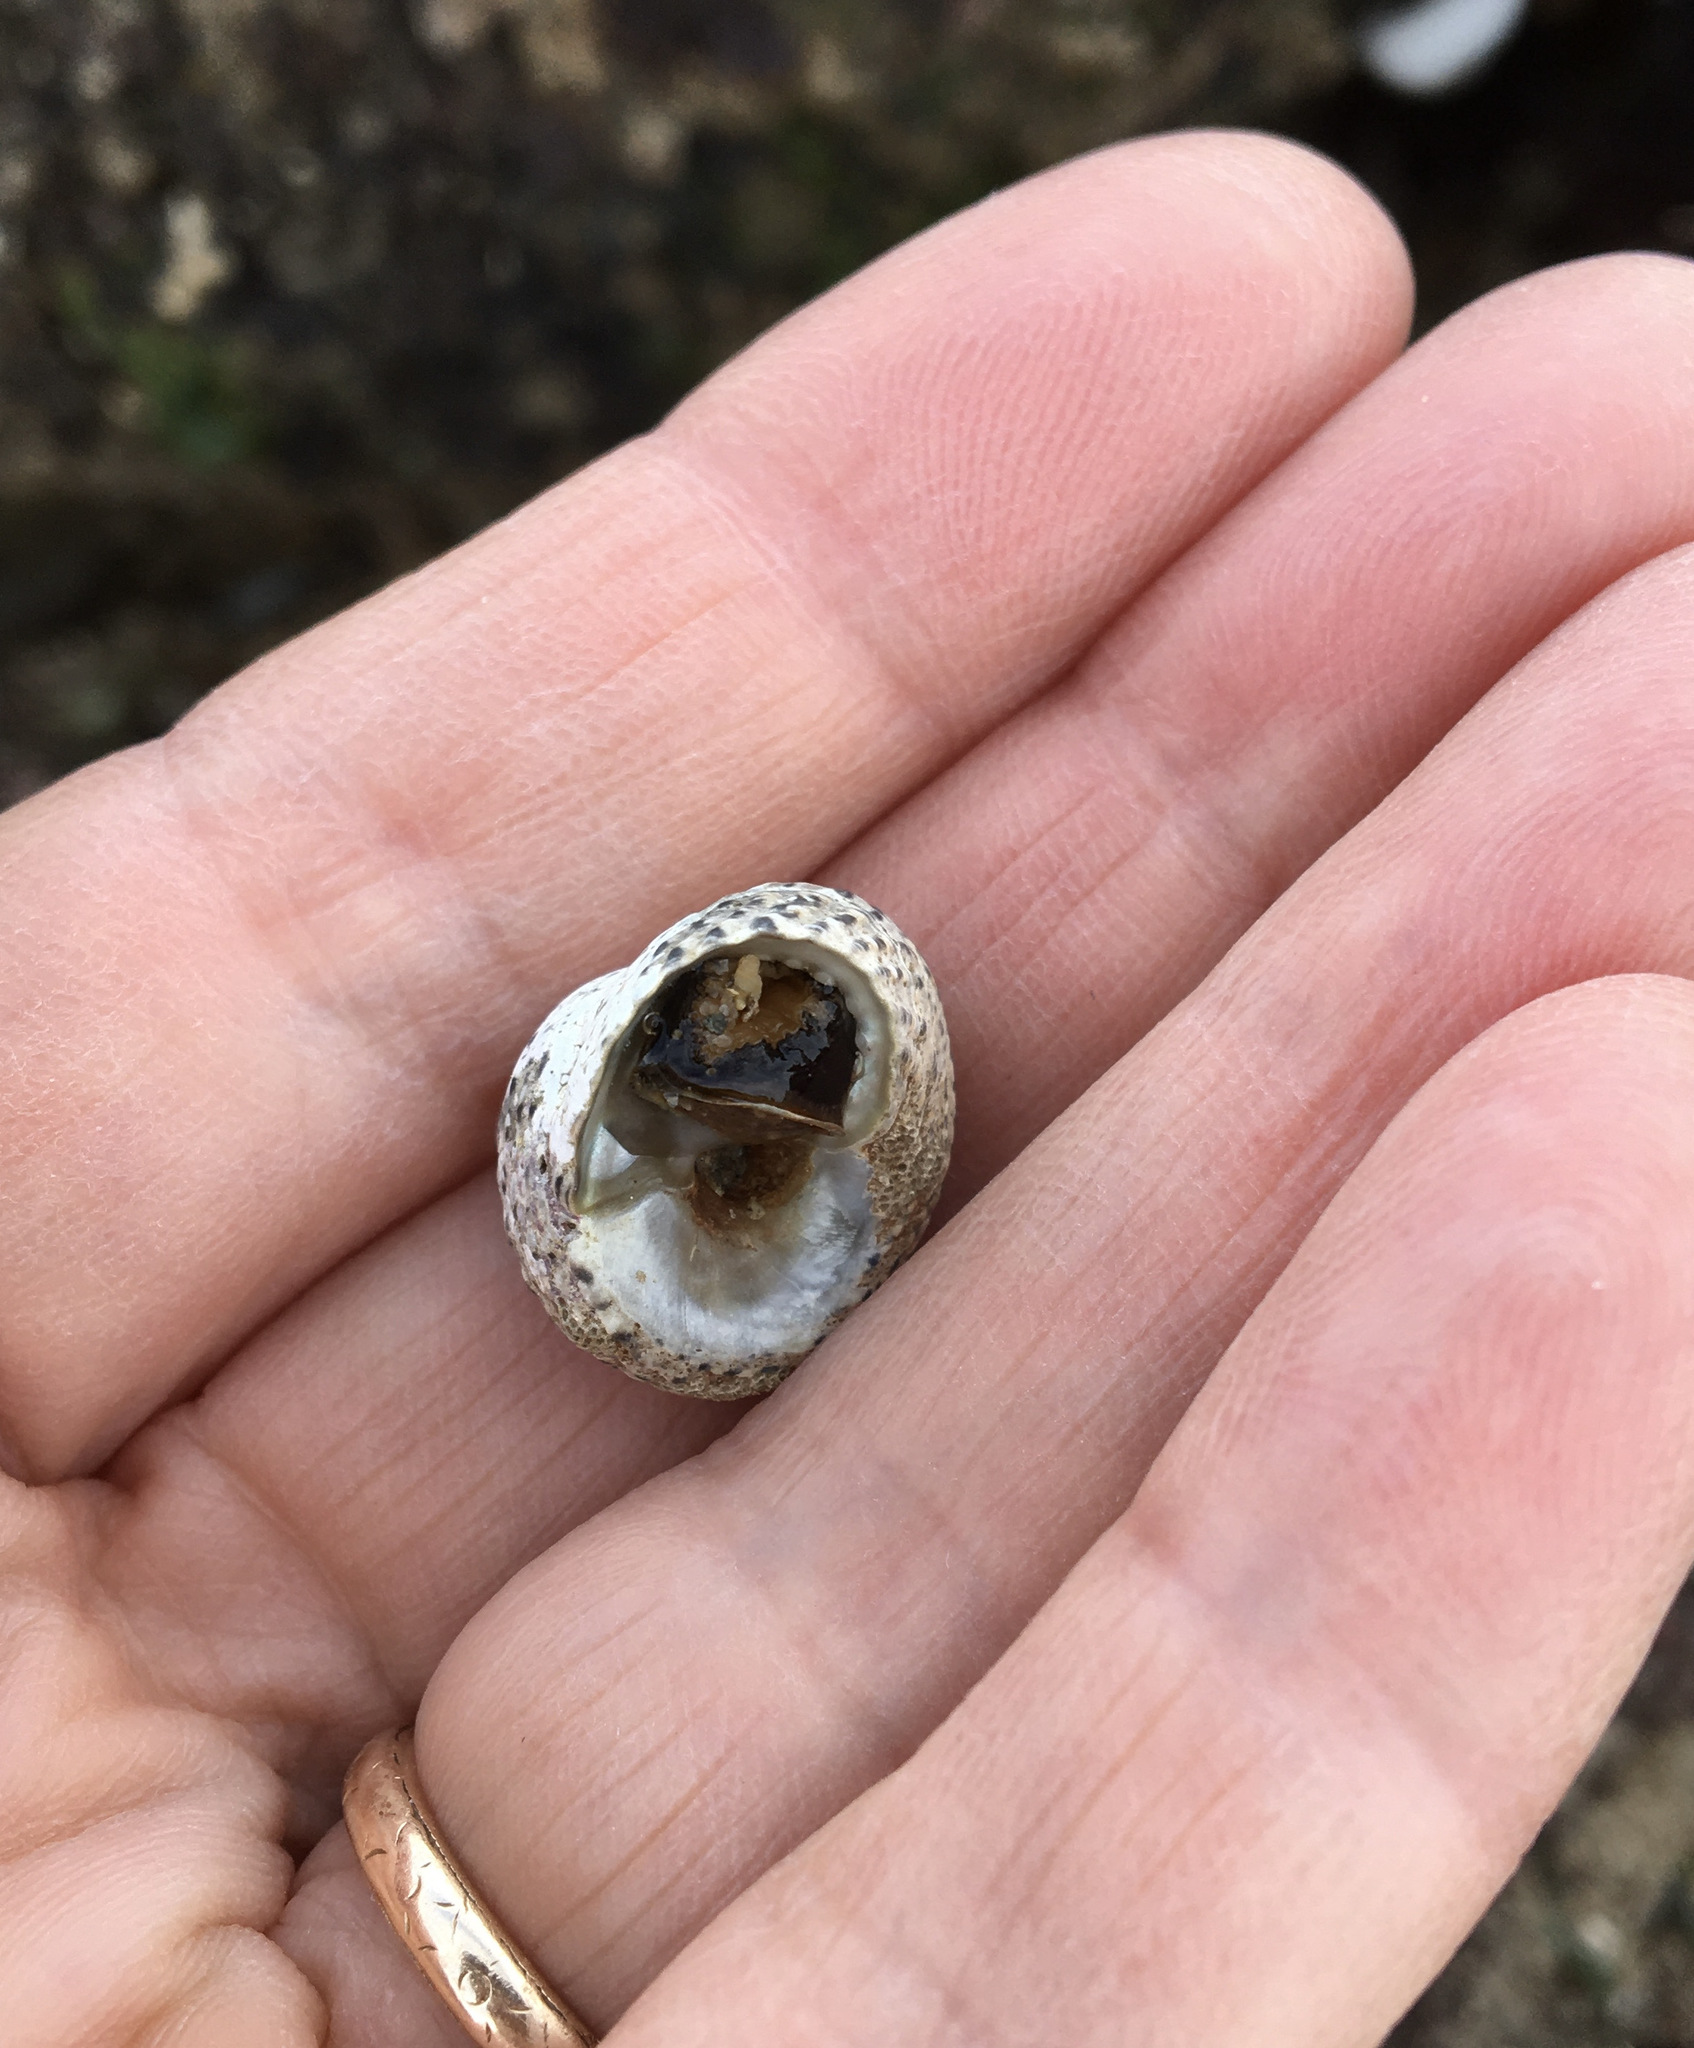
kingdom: Animalia
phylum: Mollusca
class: Gastropoda
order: Trochida
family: Tegulidae
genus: Tegula
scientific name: Tegula eiseni
